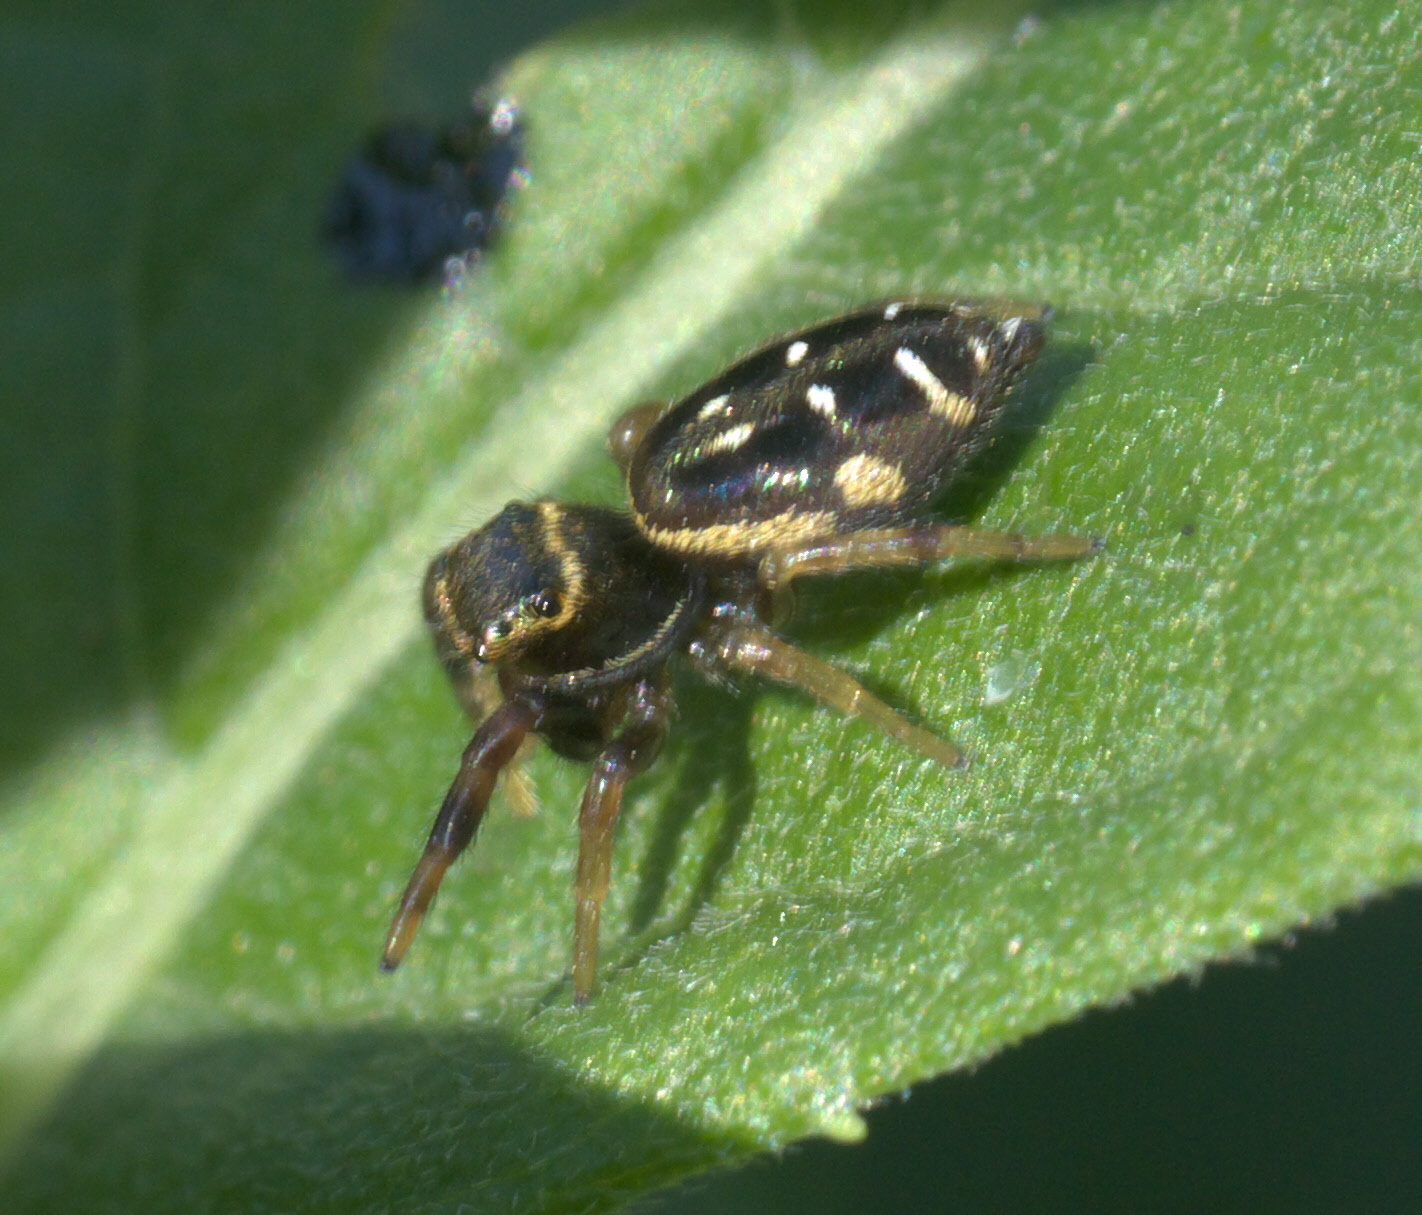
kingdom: Animalia
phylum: Arthropoda
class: Arachnida
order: Araneae
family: Salticidae
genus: Paraphidippus
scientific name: Paraphidippus aurantius
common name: Jumping spiders
